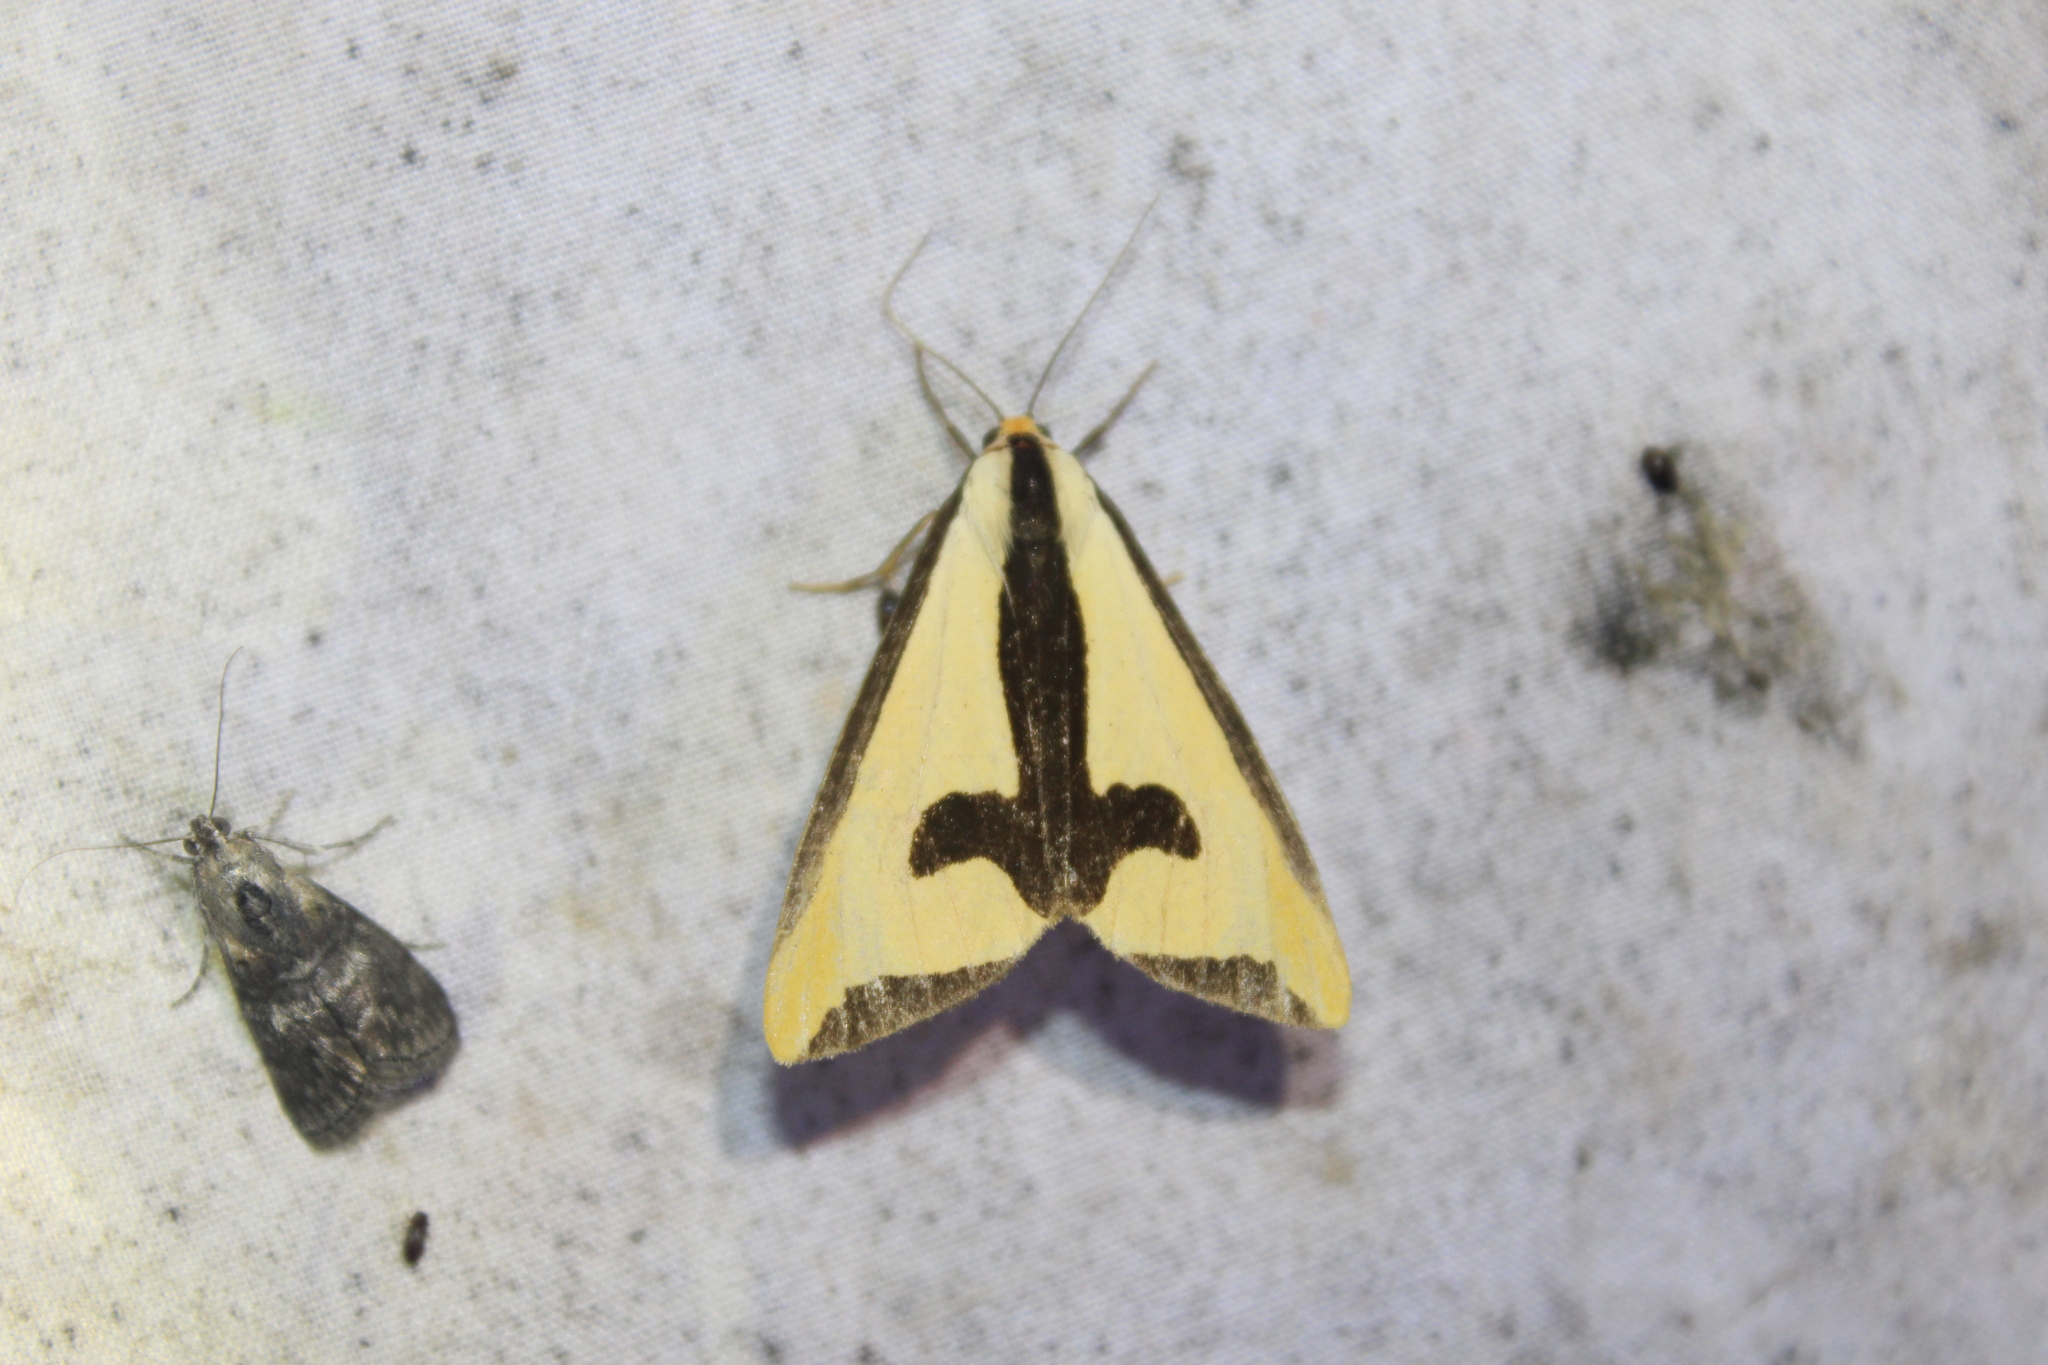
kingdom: Animalia
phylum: Arthropoda
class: Insecta
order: Lepidoptera
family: Erebidae
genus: Haploa
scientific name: Haploa clymene
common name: Clymene moth
